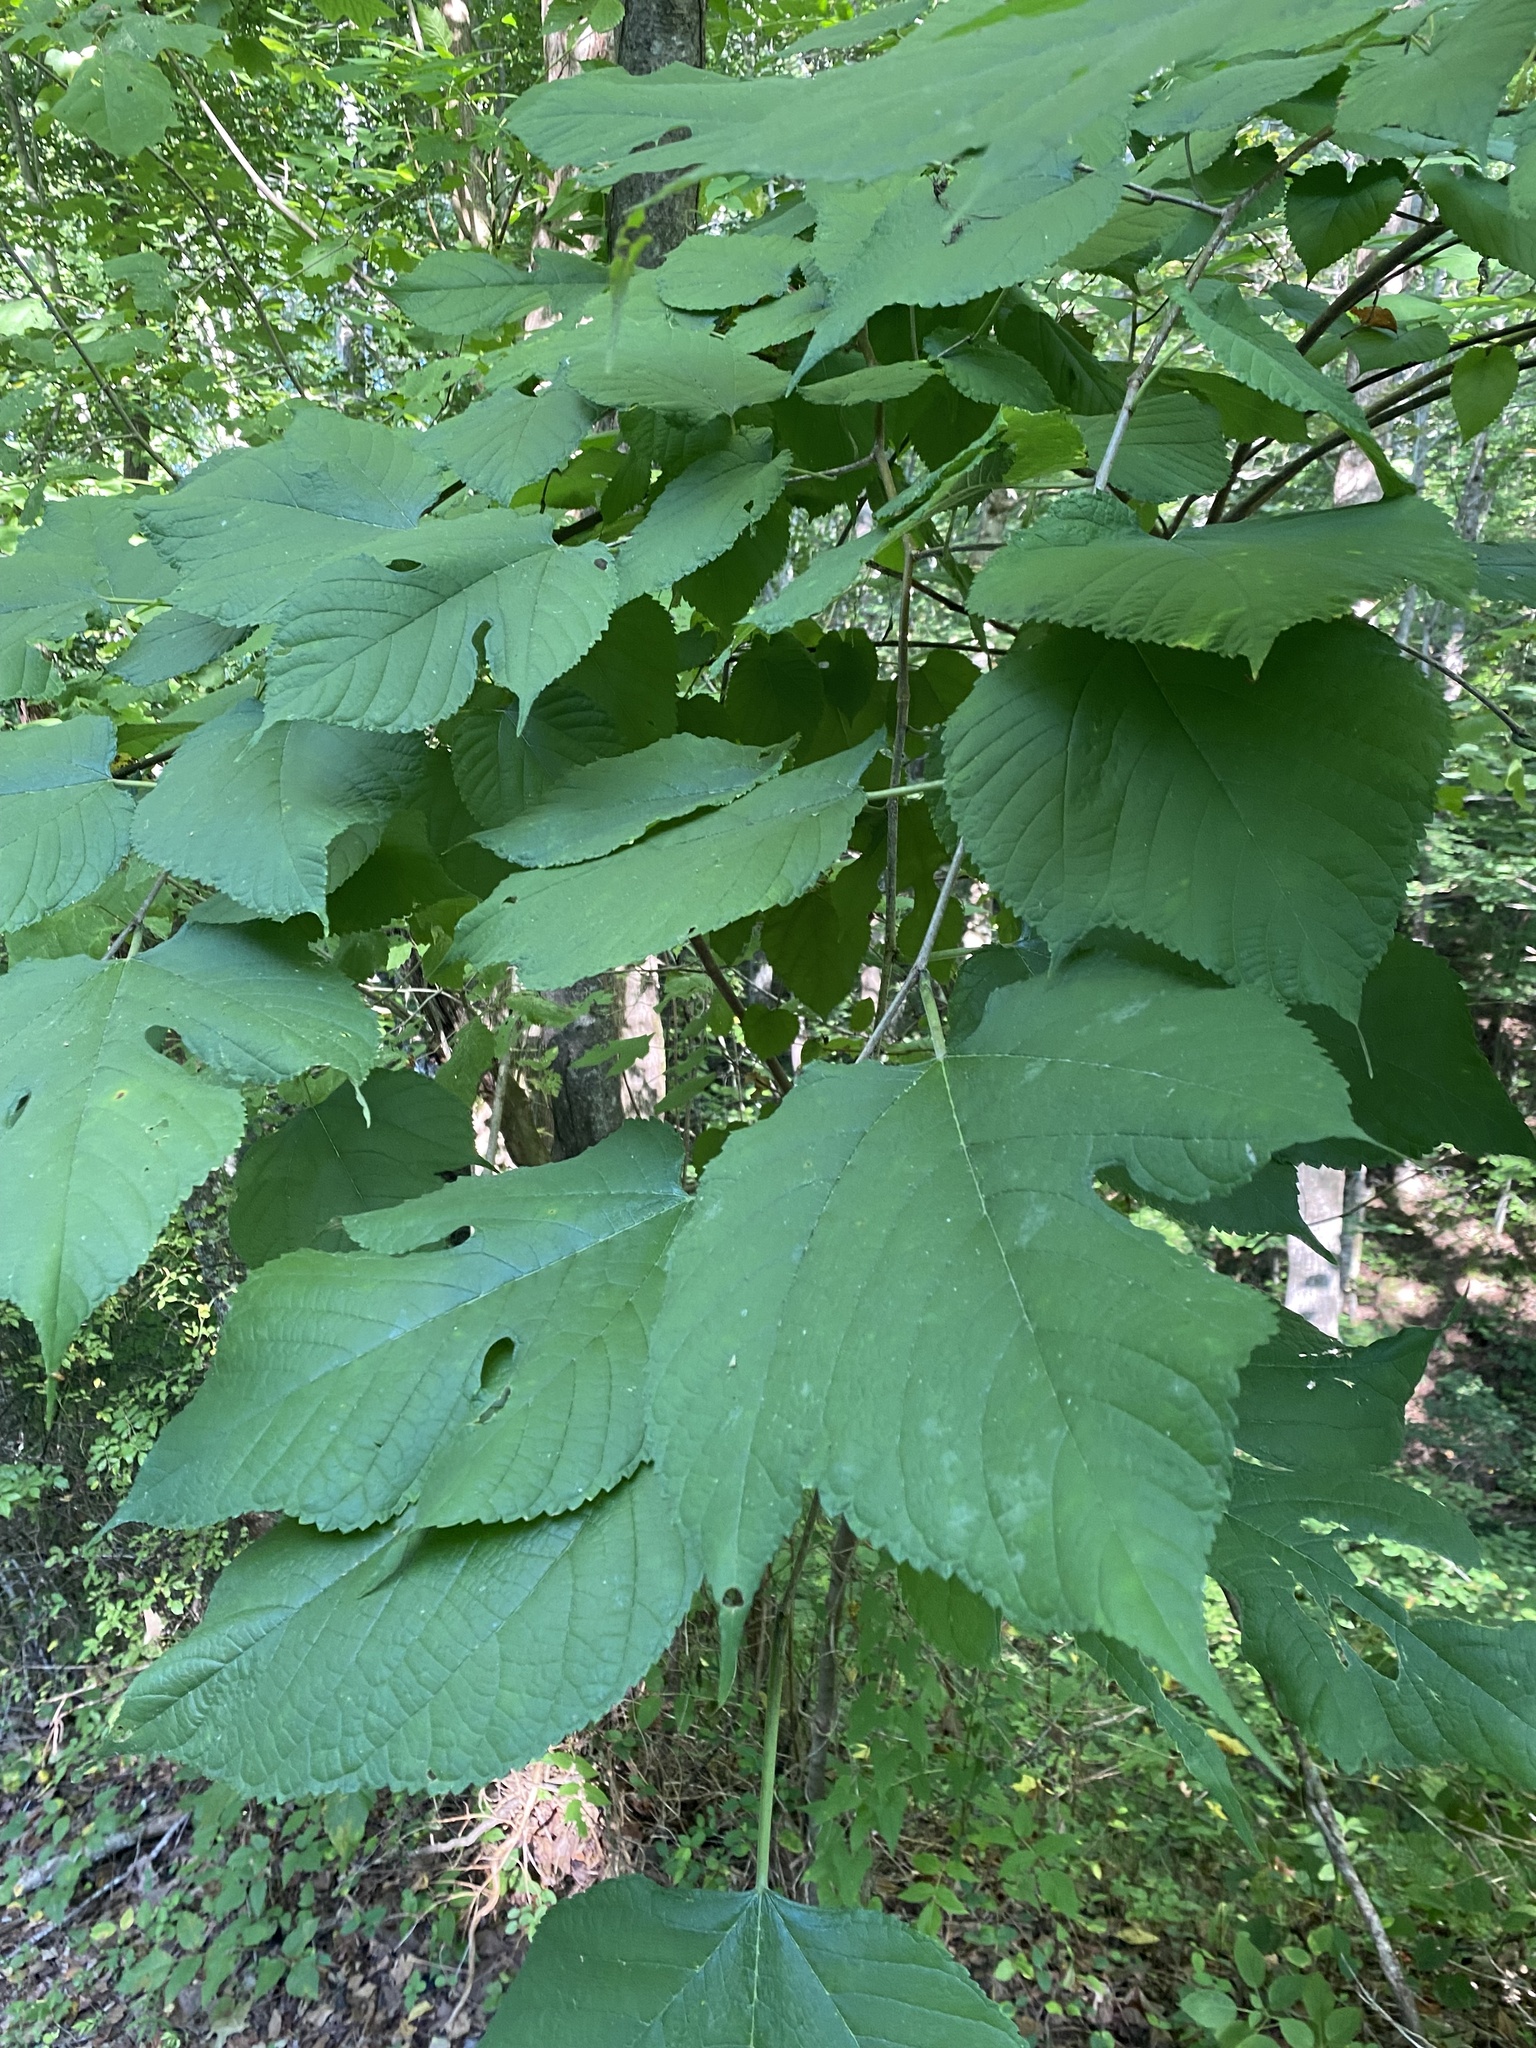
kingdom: Plantae
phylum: Tracheophyta
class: Magnoliopsida
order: Rosales
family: Moraceae
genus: Morus
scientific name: Morus rubra
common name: Red mulberry
